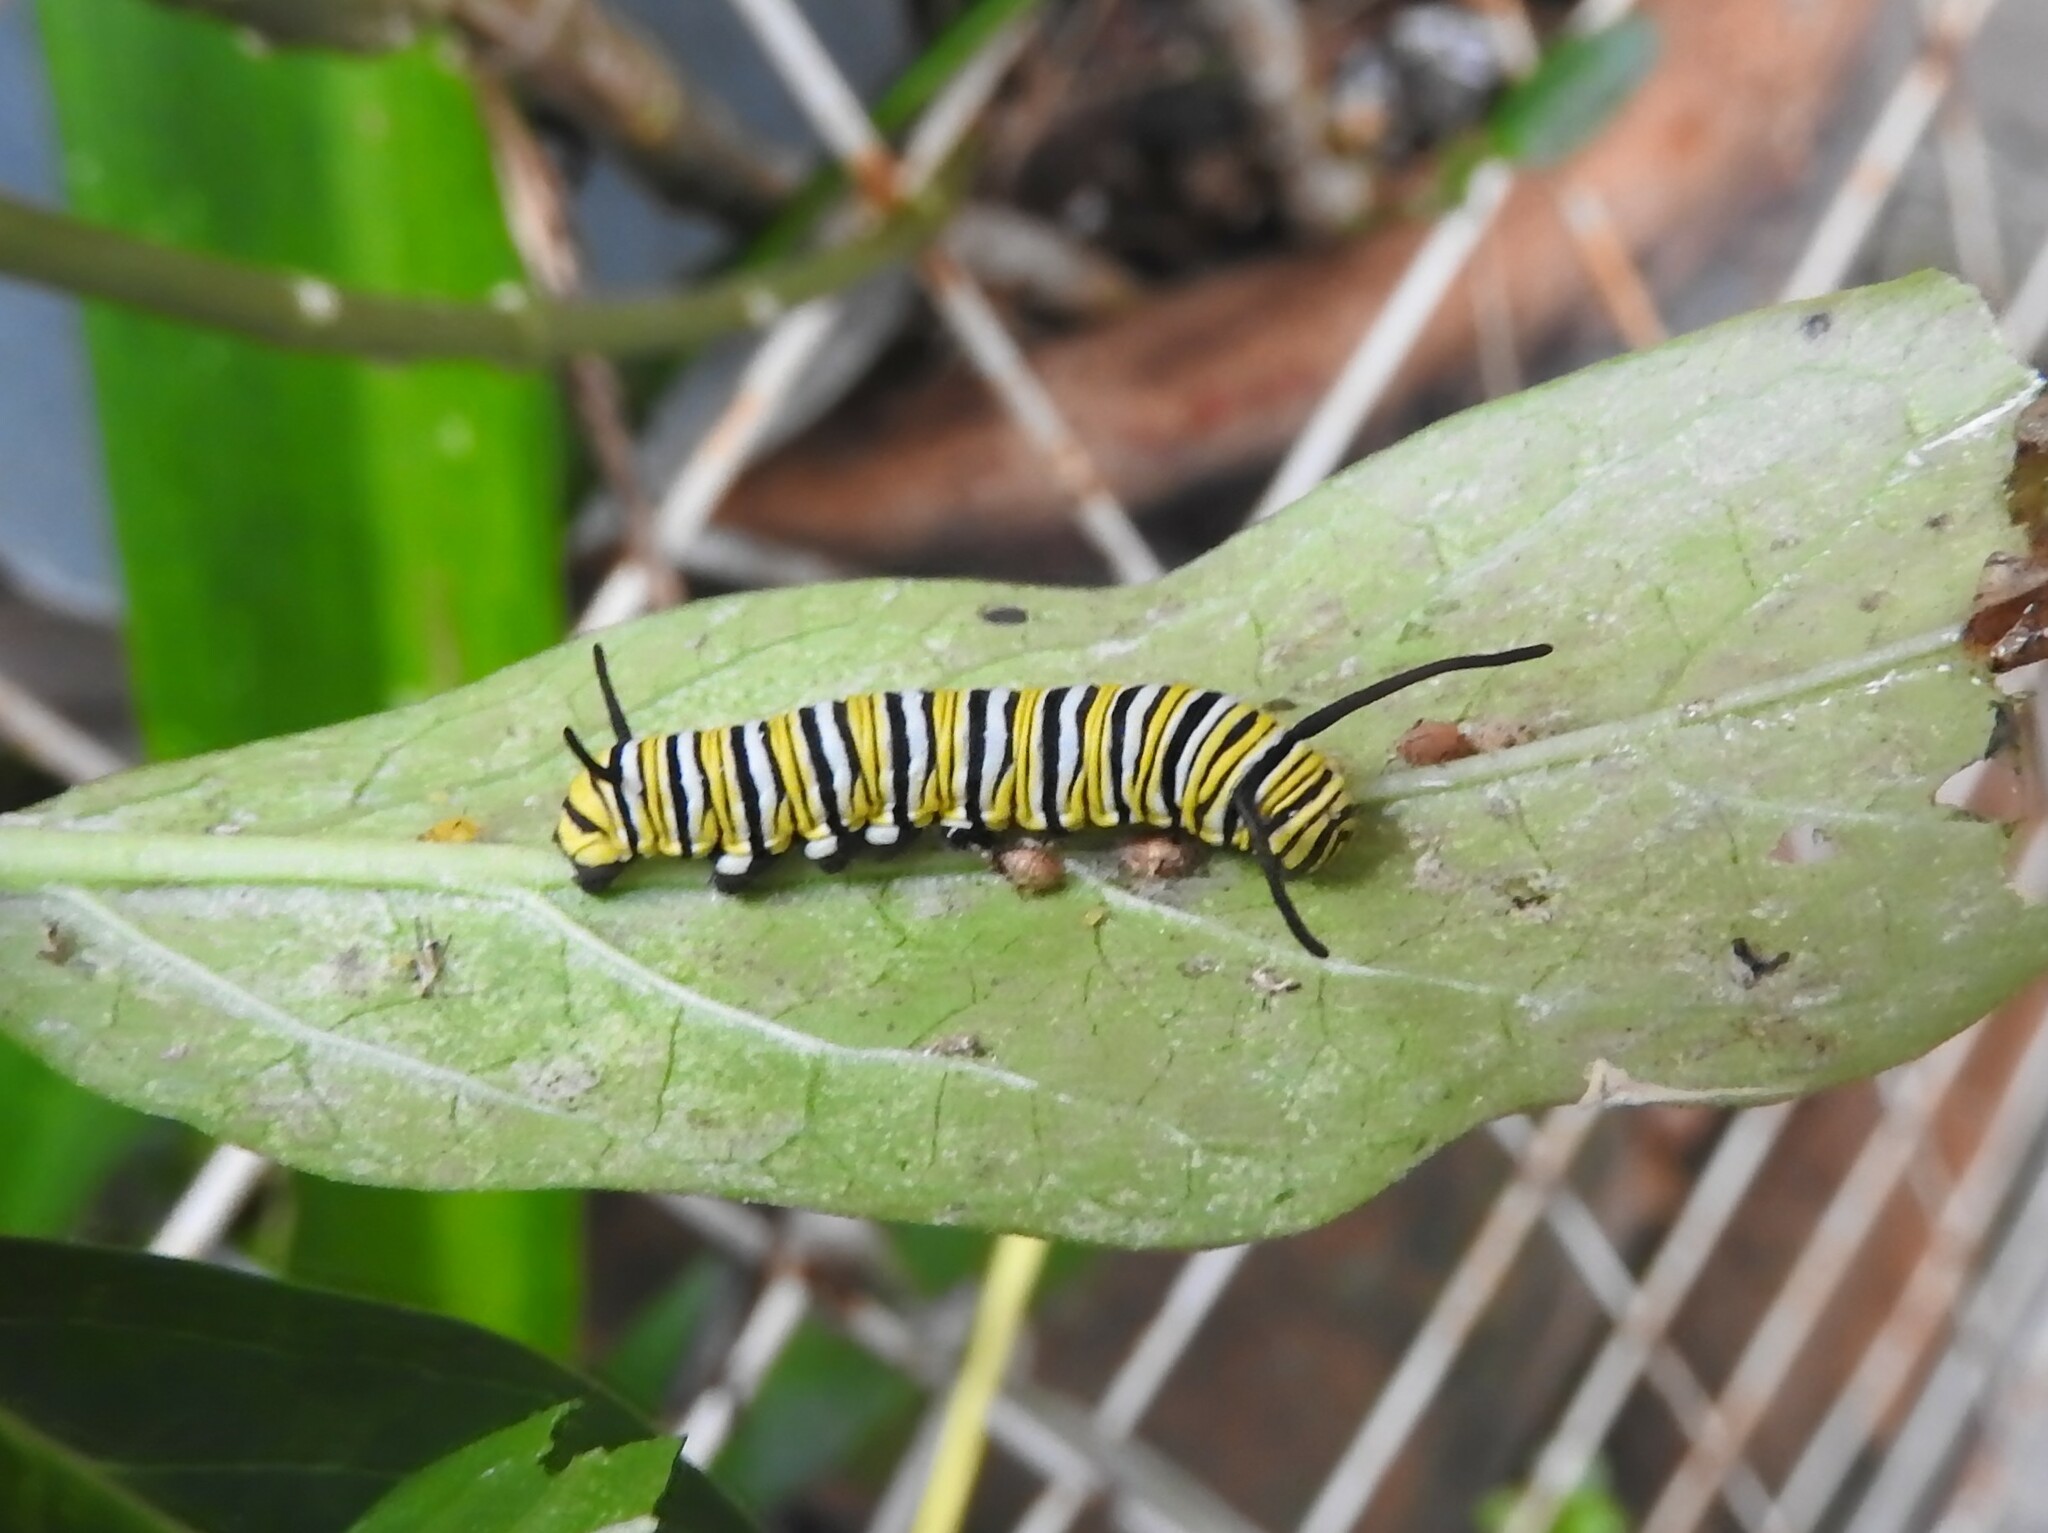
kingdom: Animalia
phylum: Arthropoda
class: Insecta
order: Lepidoptera
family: Nymphalidae
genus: Danaus
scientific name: Danaus plexippus
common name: Monarch
